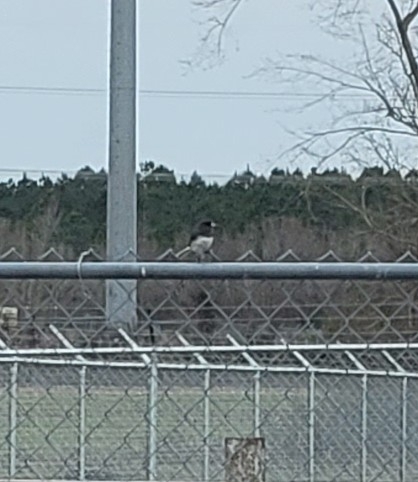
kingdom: Animalia
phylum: Chordata
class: Aves
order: Passeriformes
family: Passerellidae
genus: Junco
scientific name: Junco hyemalis
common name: Dark-eyed junco
